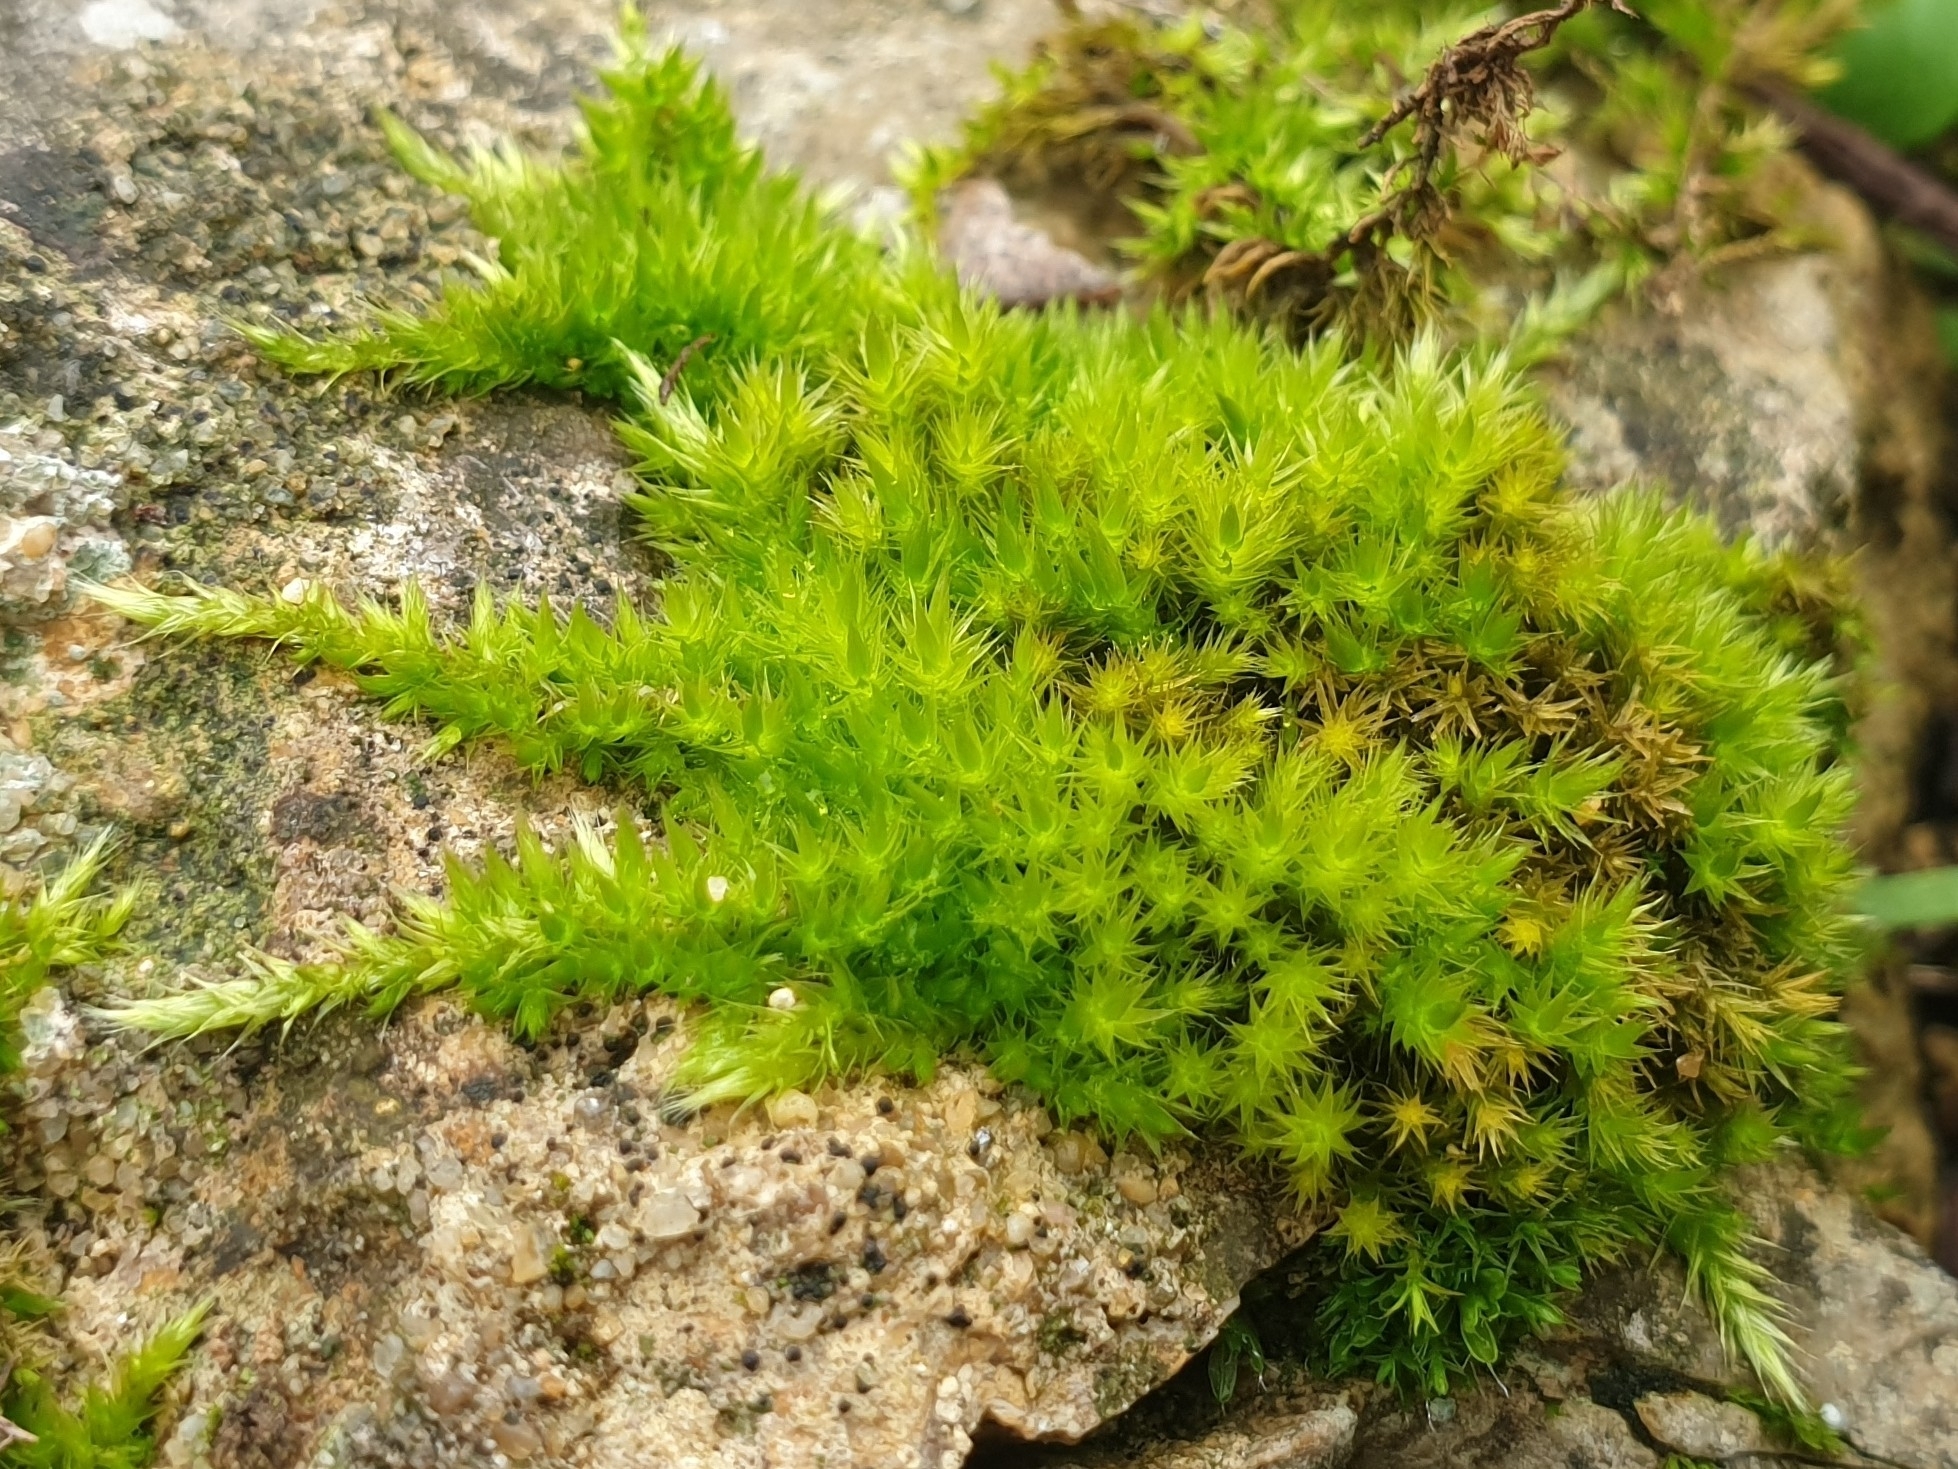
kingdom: Plantae
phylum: Bryophyta
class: Bryopsida
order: Hypnales
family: Brachytheciaceae
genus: Homalothecium
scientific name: Homalothecium sericeum
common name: Silky wall feather-moss
